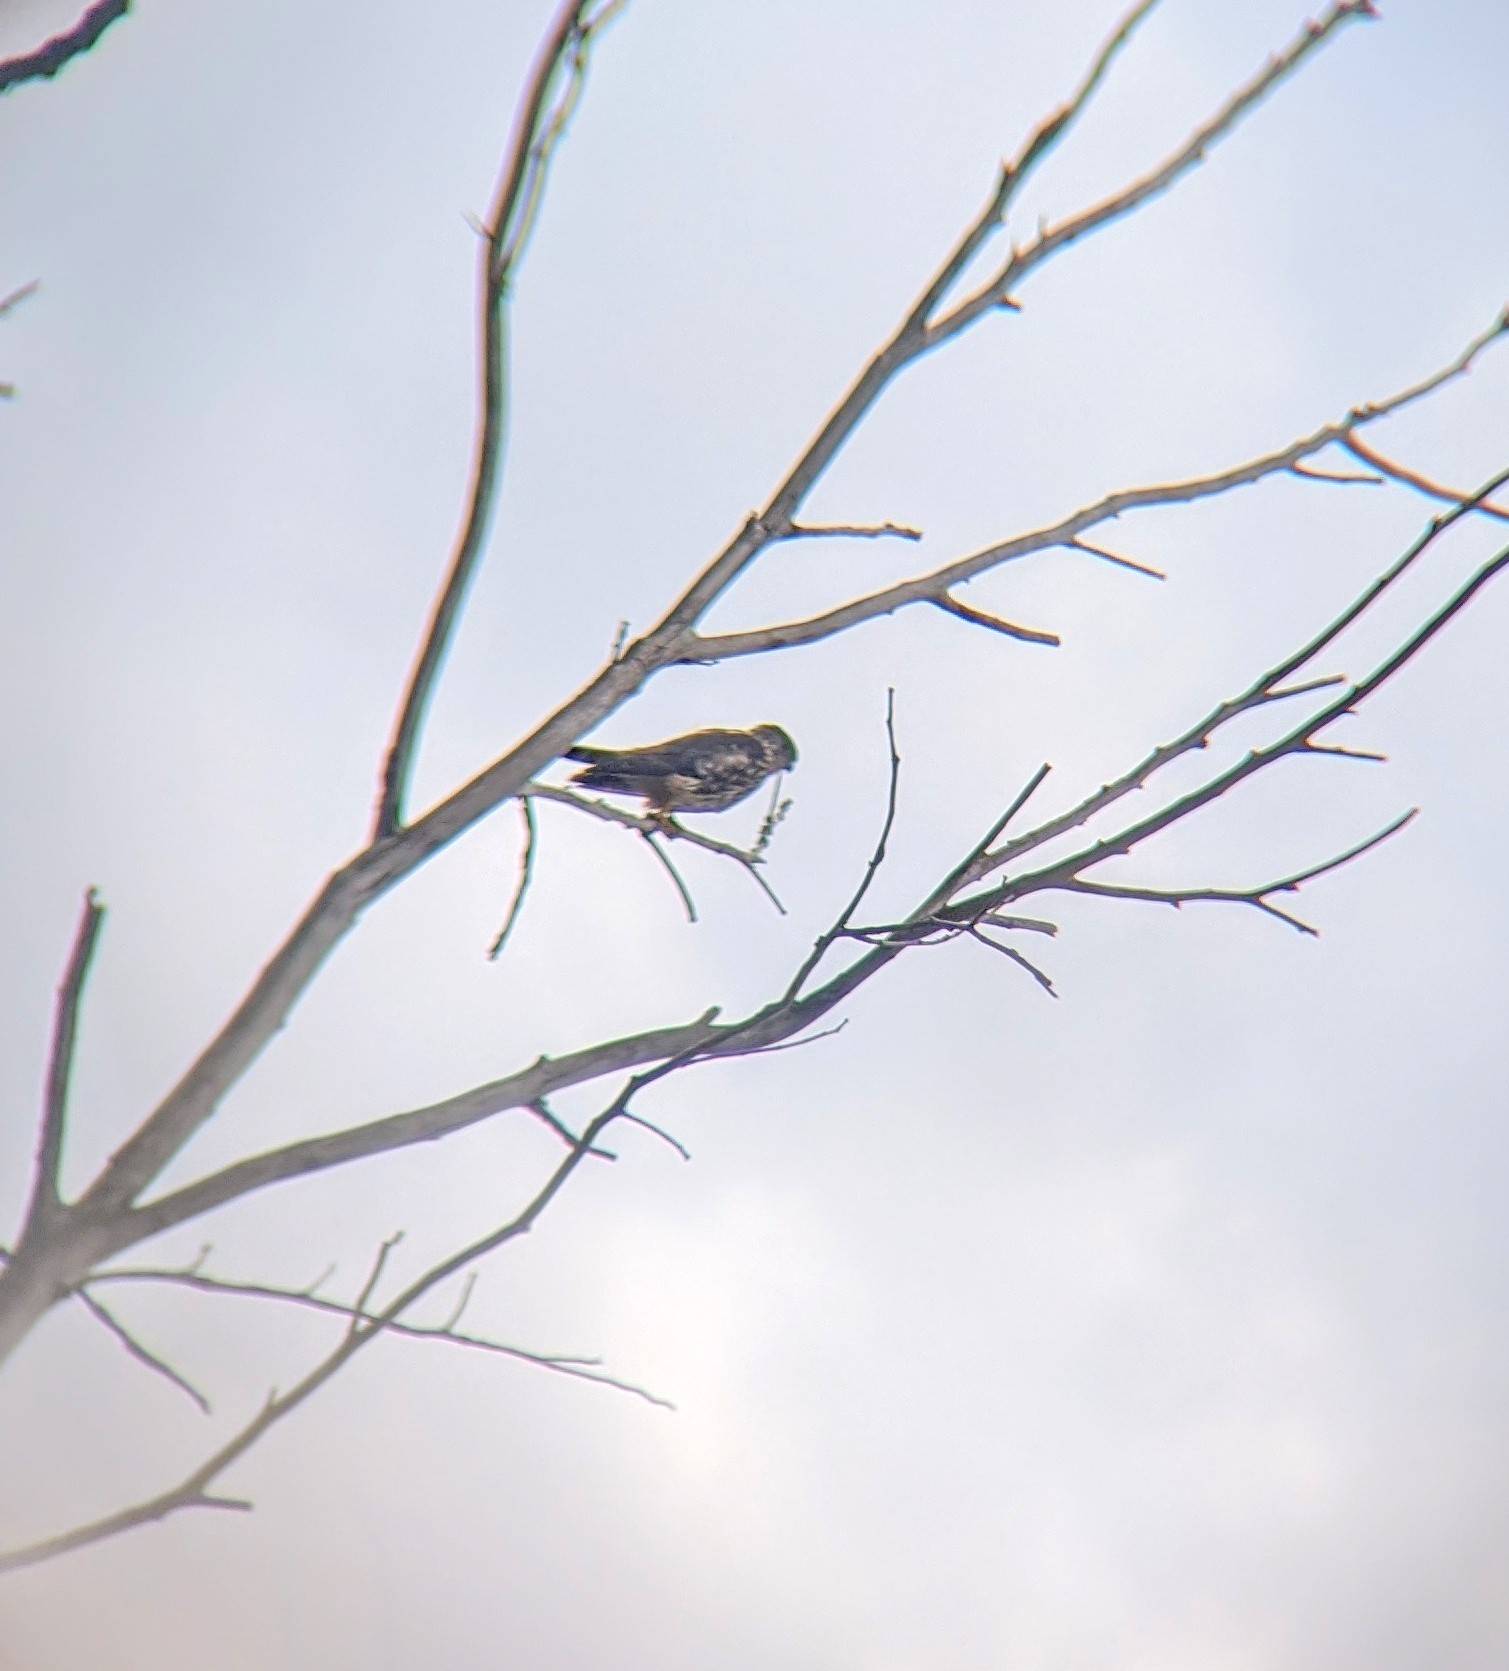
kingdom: Animalia
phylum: Chordata
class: Aves
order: Falconiformes
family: Falconidae
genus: Falco
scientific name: Falco columbarius
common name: Merlin
